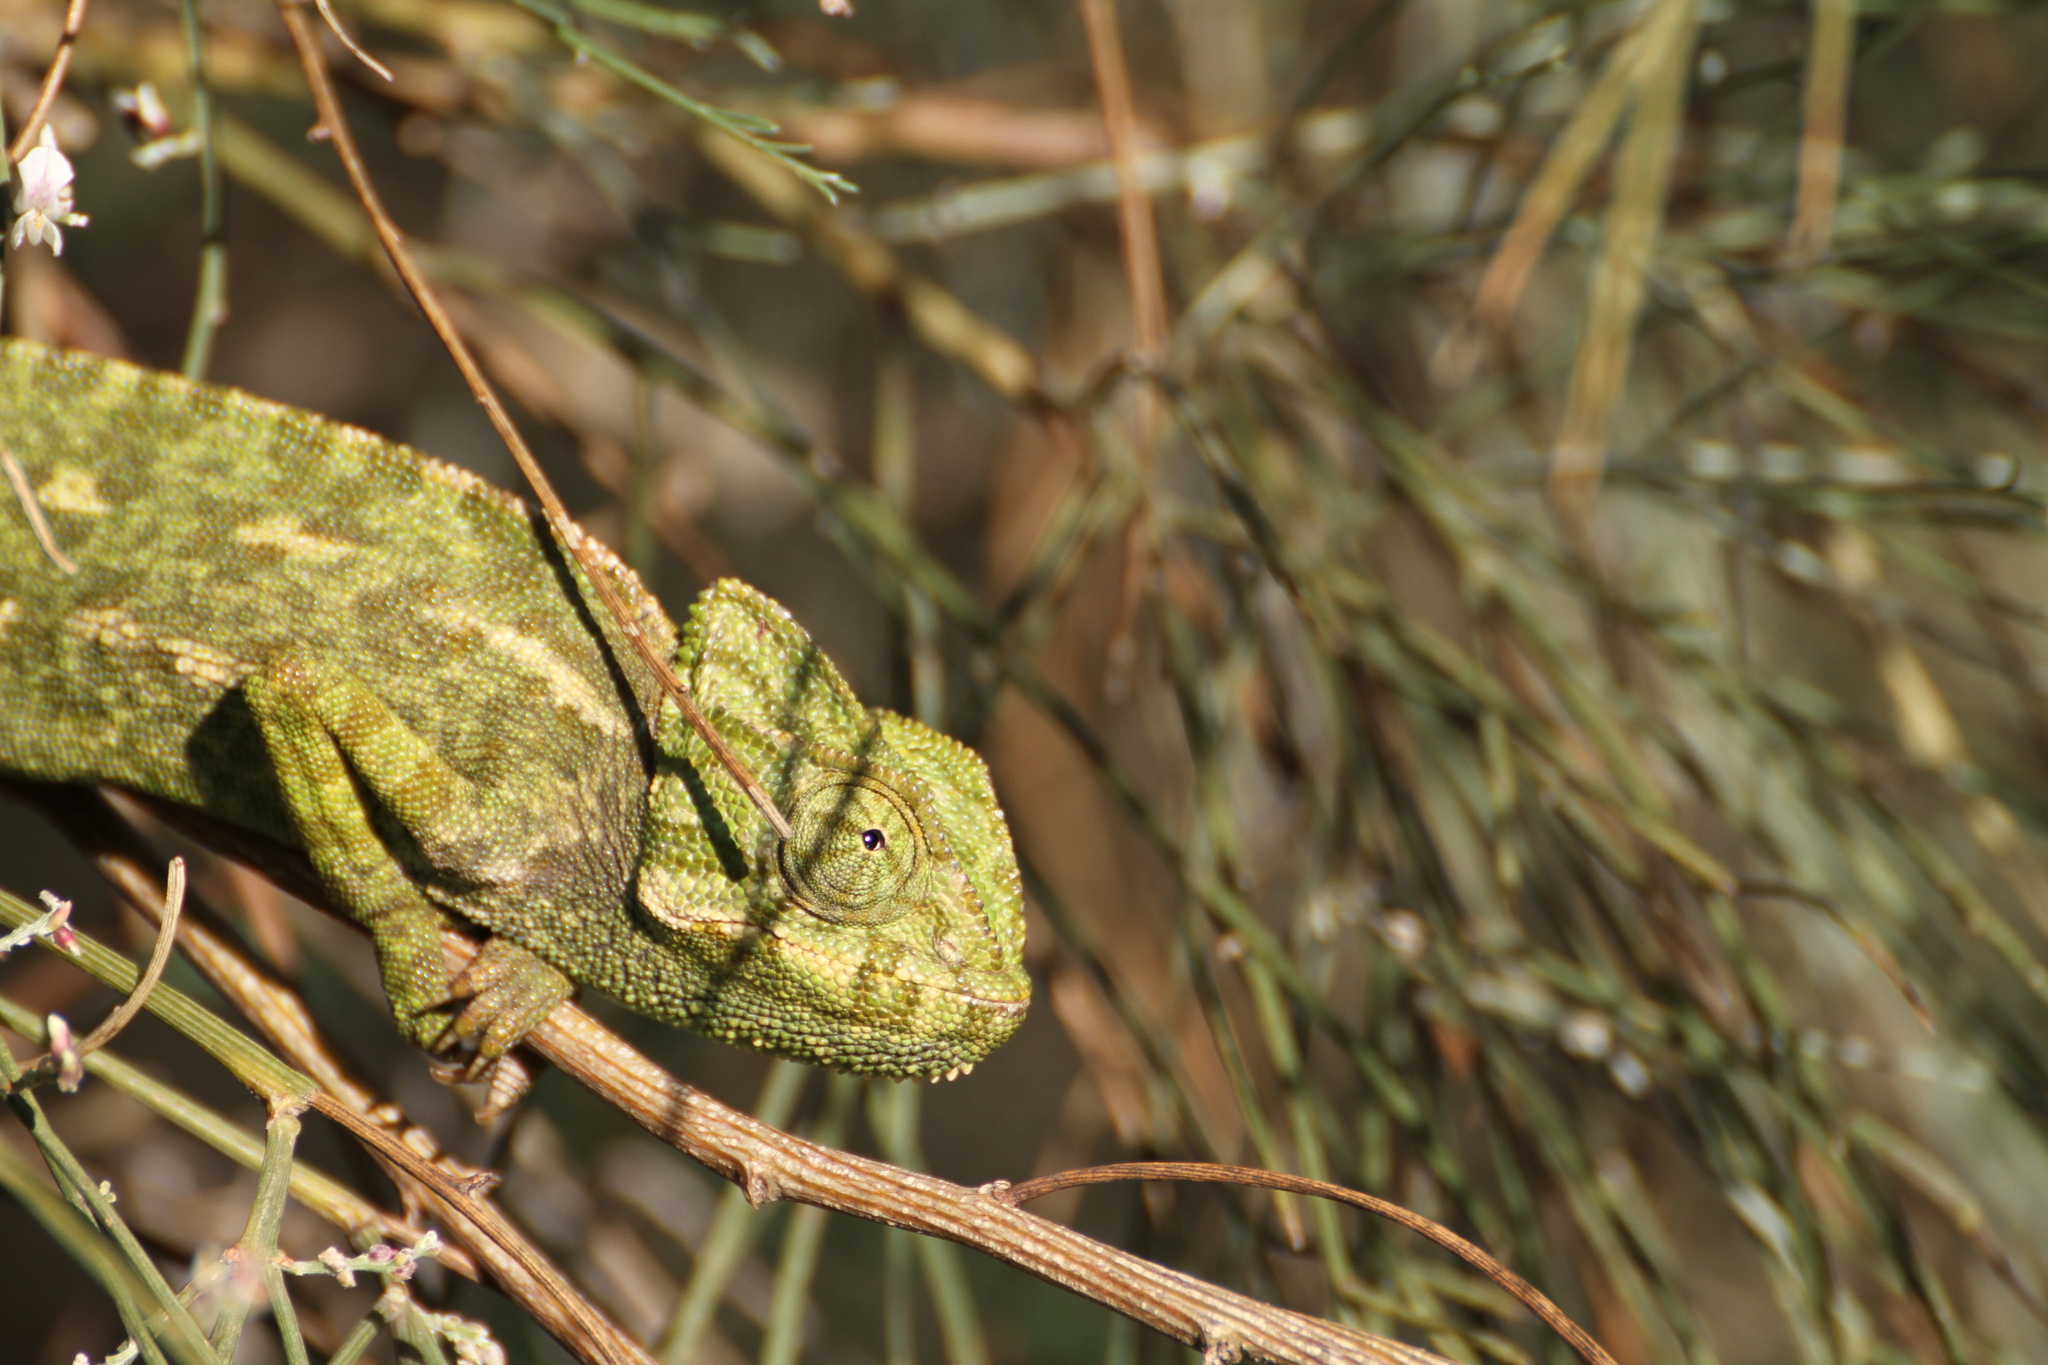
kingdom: Animalia
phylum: Chordata
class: Squamata
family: Chamaeleonidae
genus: Chamaeleo
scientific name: Chamaeleo chamaeleon
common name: Mediterranean chameleon
